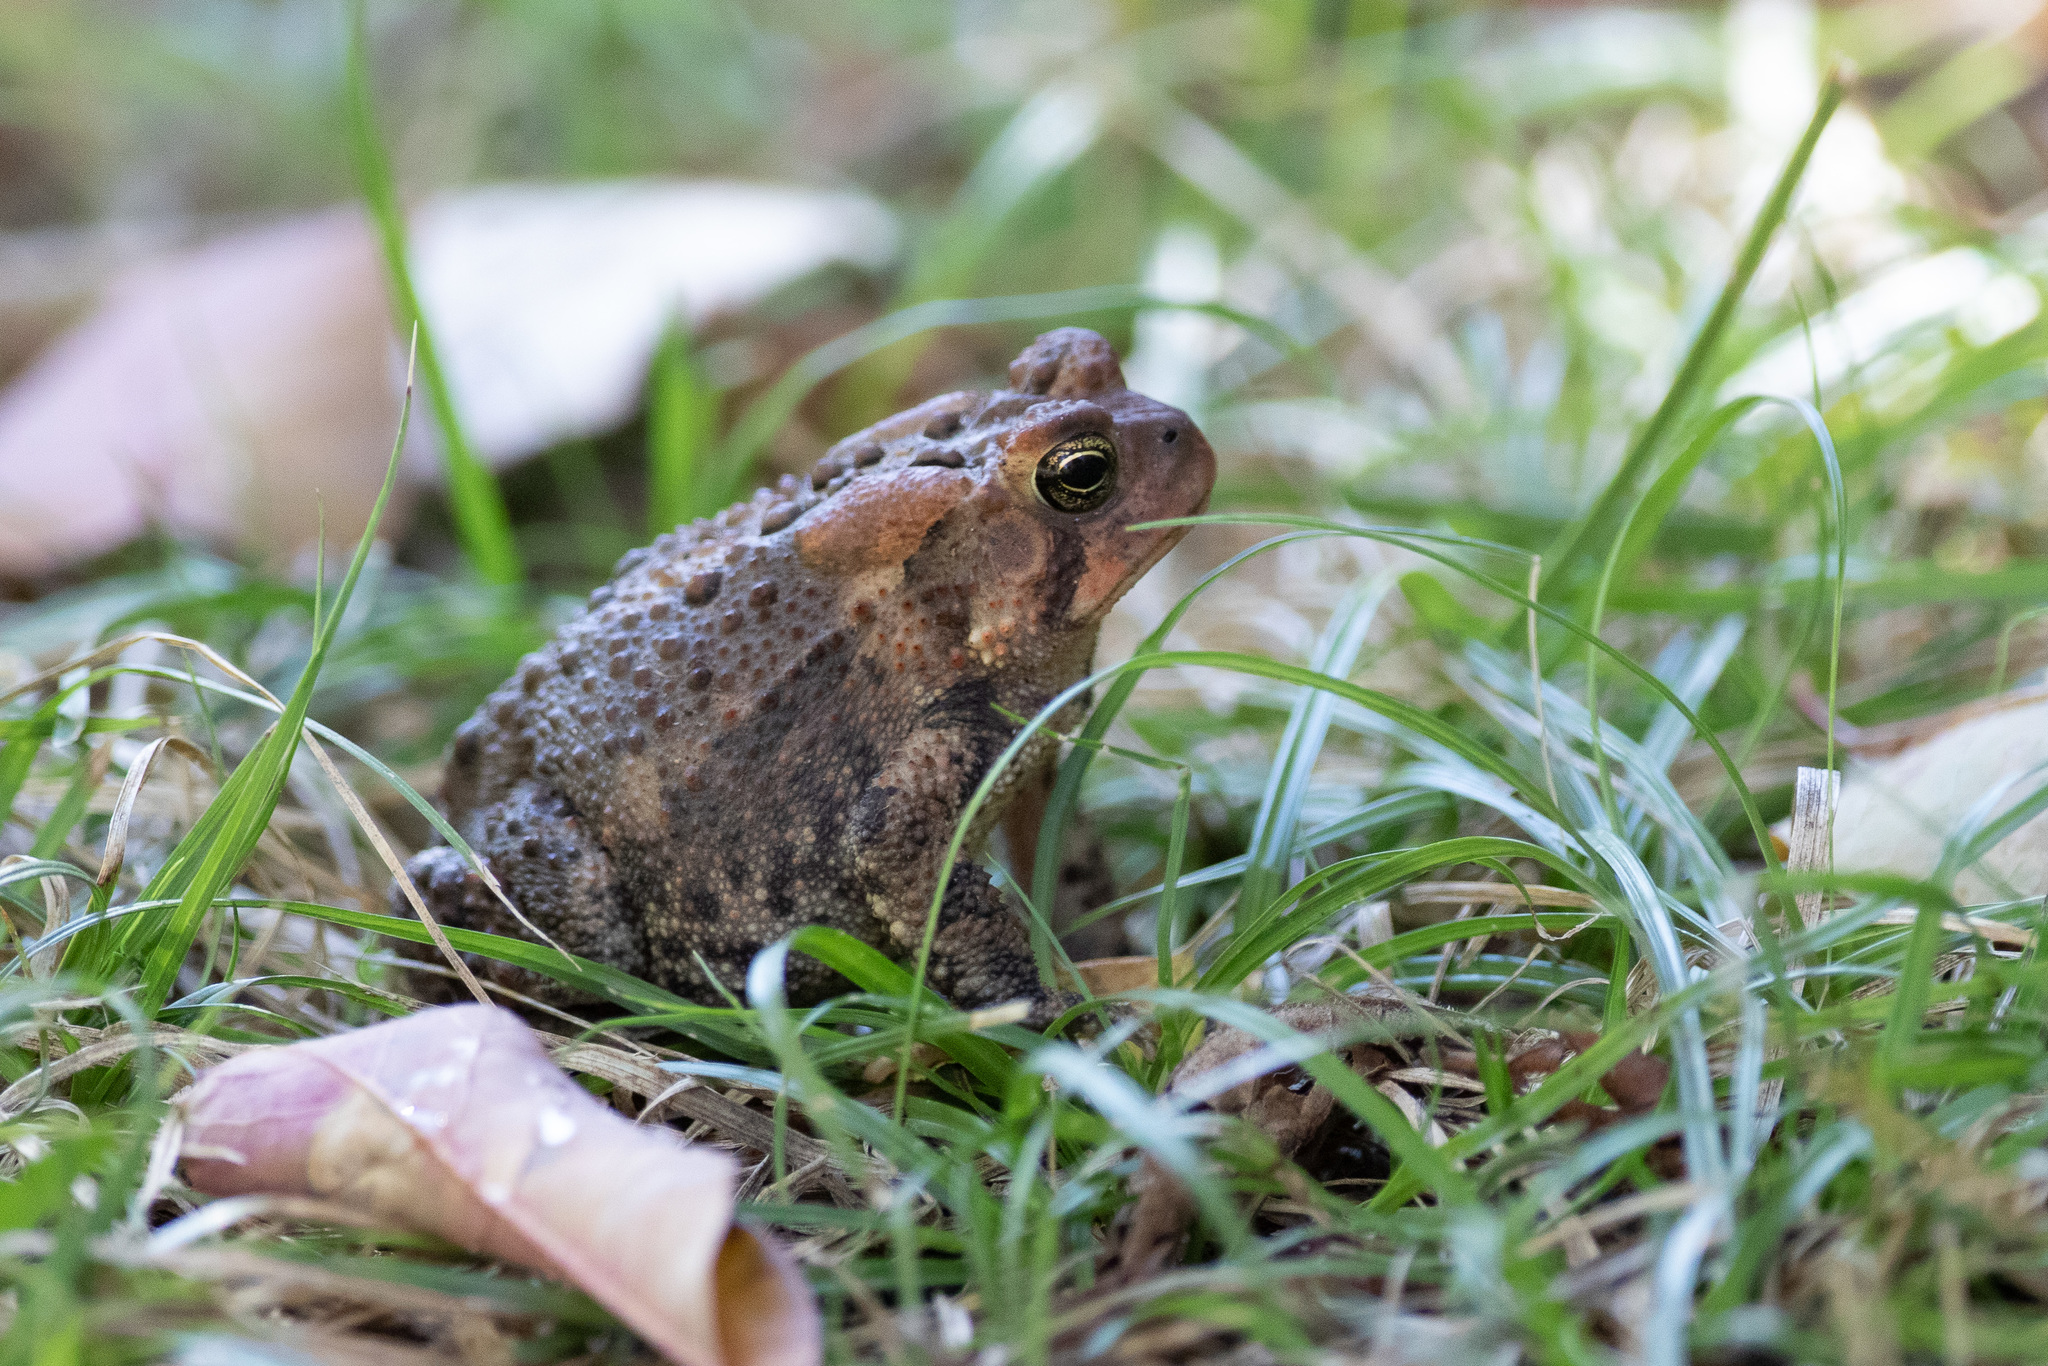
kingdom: Animalia
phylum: Chordata
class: Amphibia
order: Anura
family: Bufonidae
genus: Anaxyrus
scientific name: Anaxyrus americanus
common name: American toad
